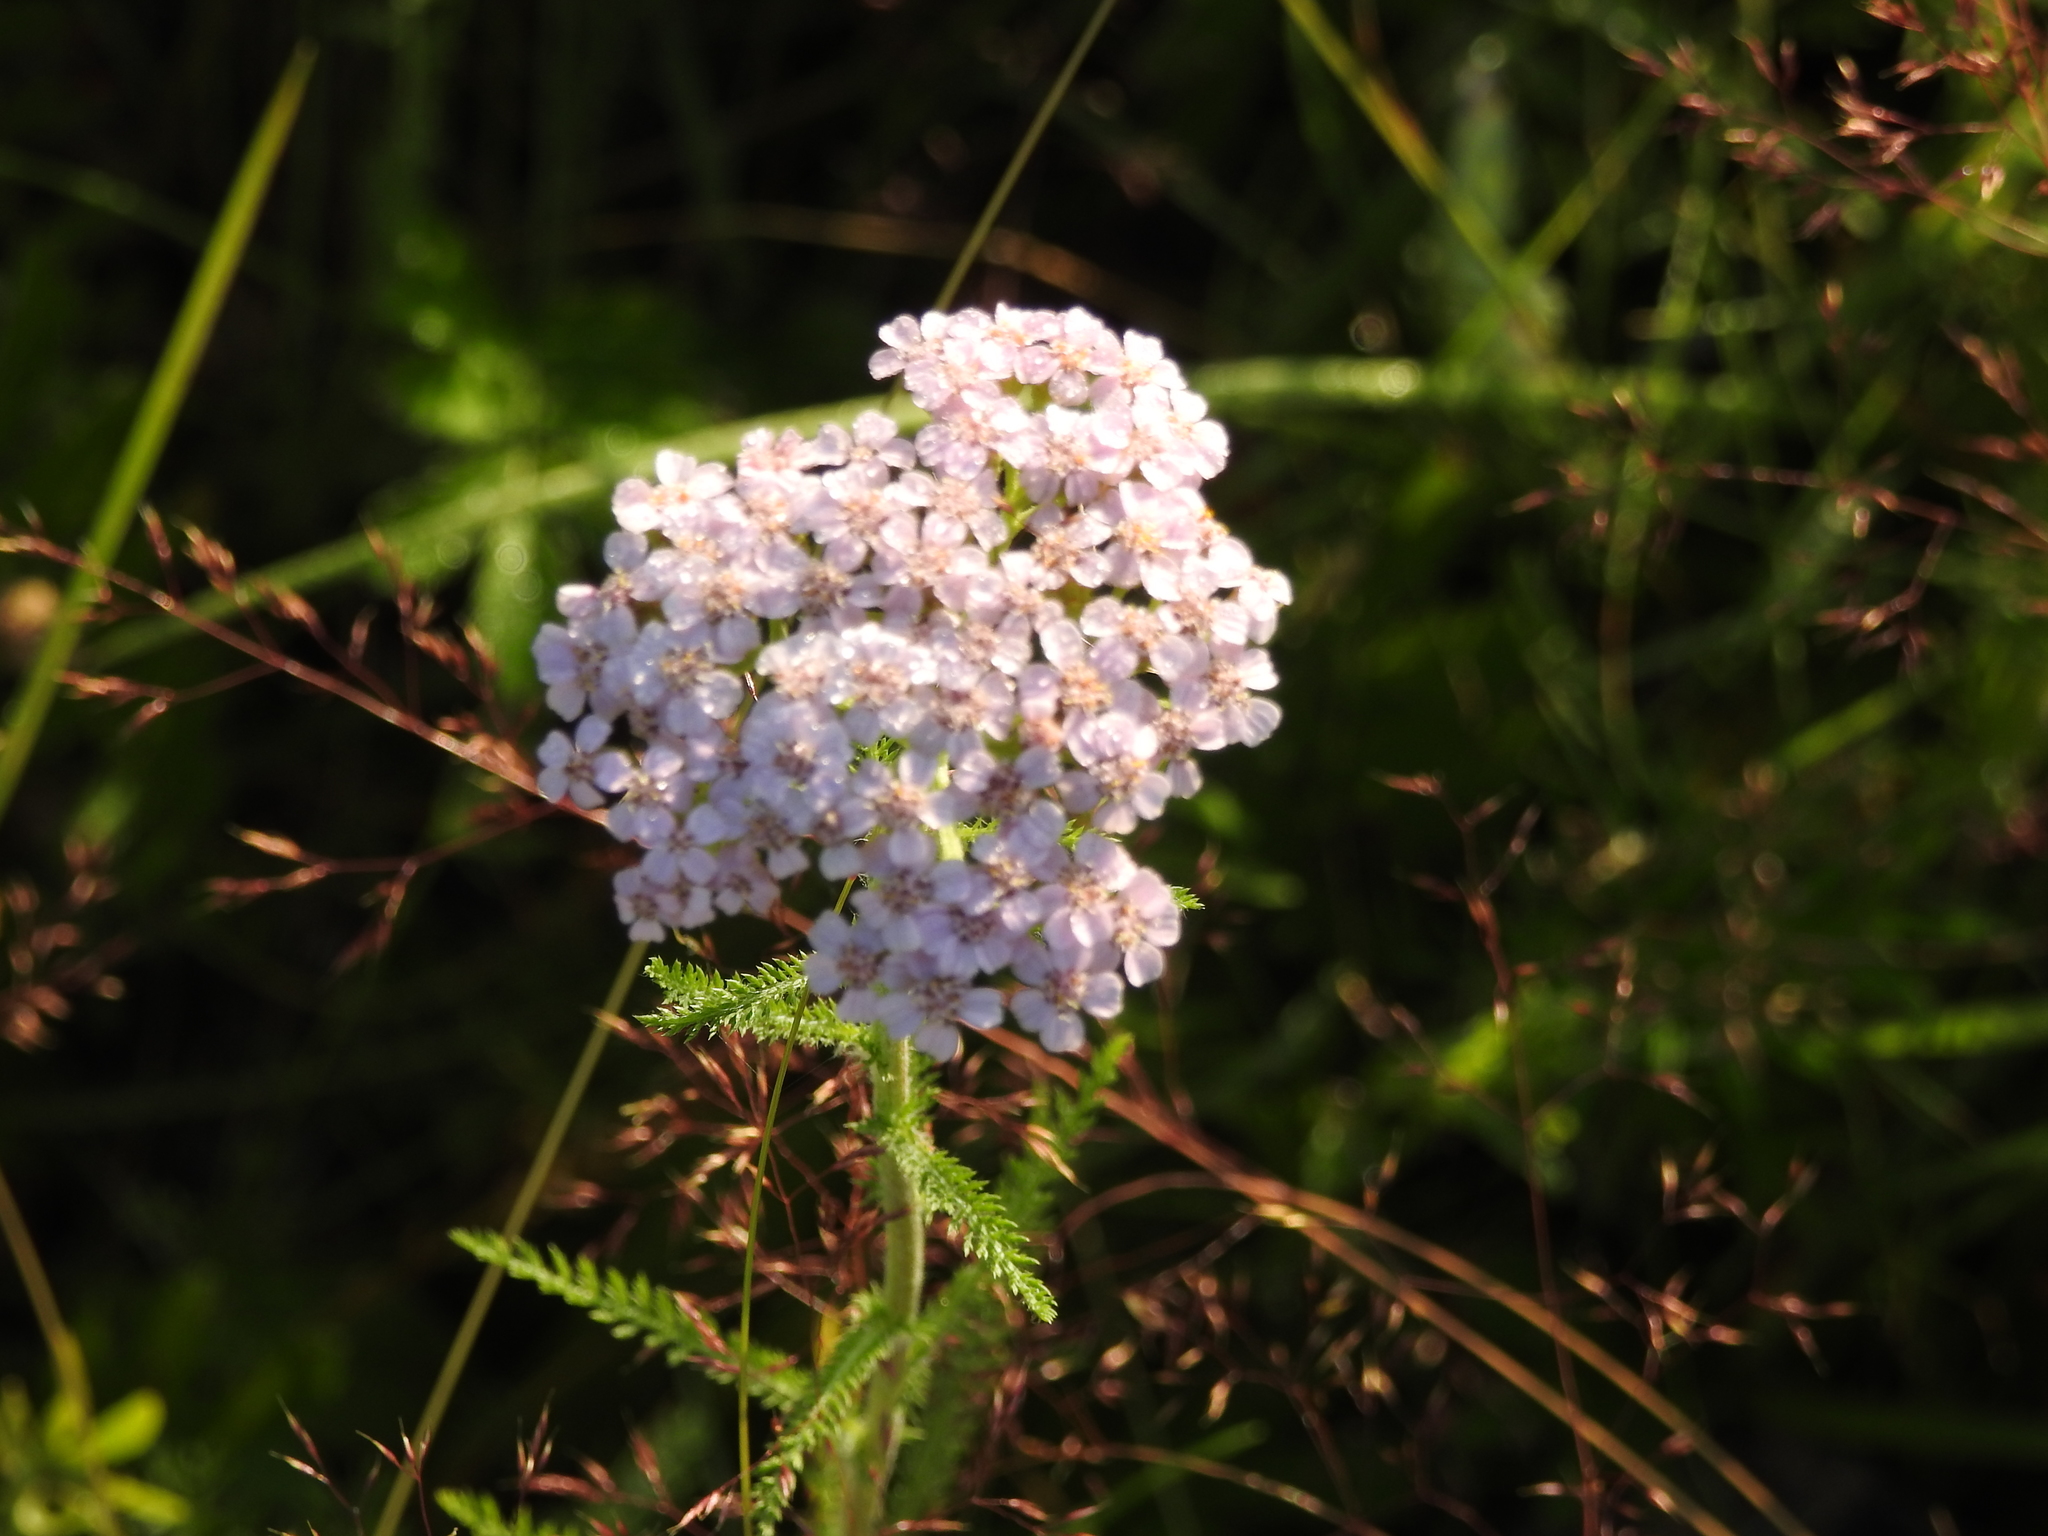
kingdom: Plantae
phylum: Tracheophyta
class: Magnoliopsida
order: Asterales
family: Asteraceae
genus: Achillea
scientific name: Achillea asiatica
